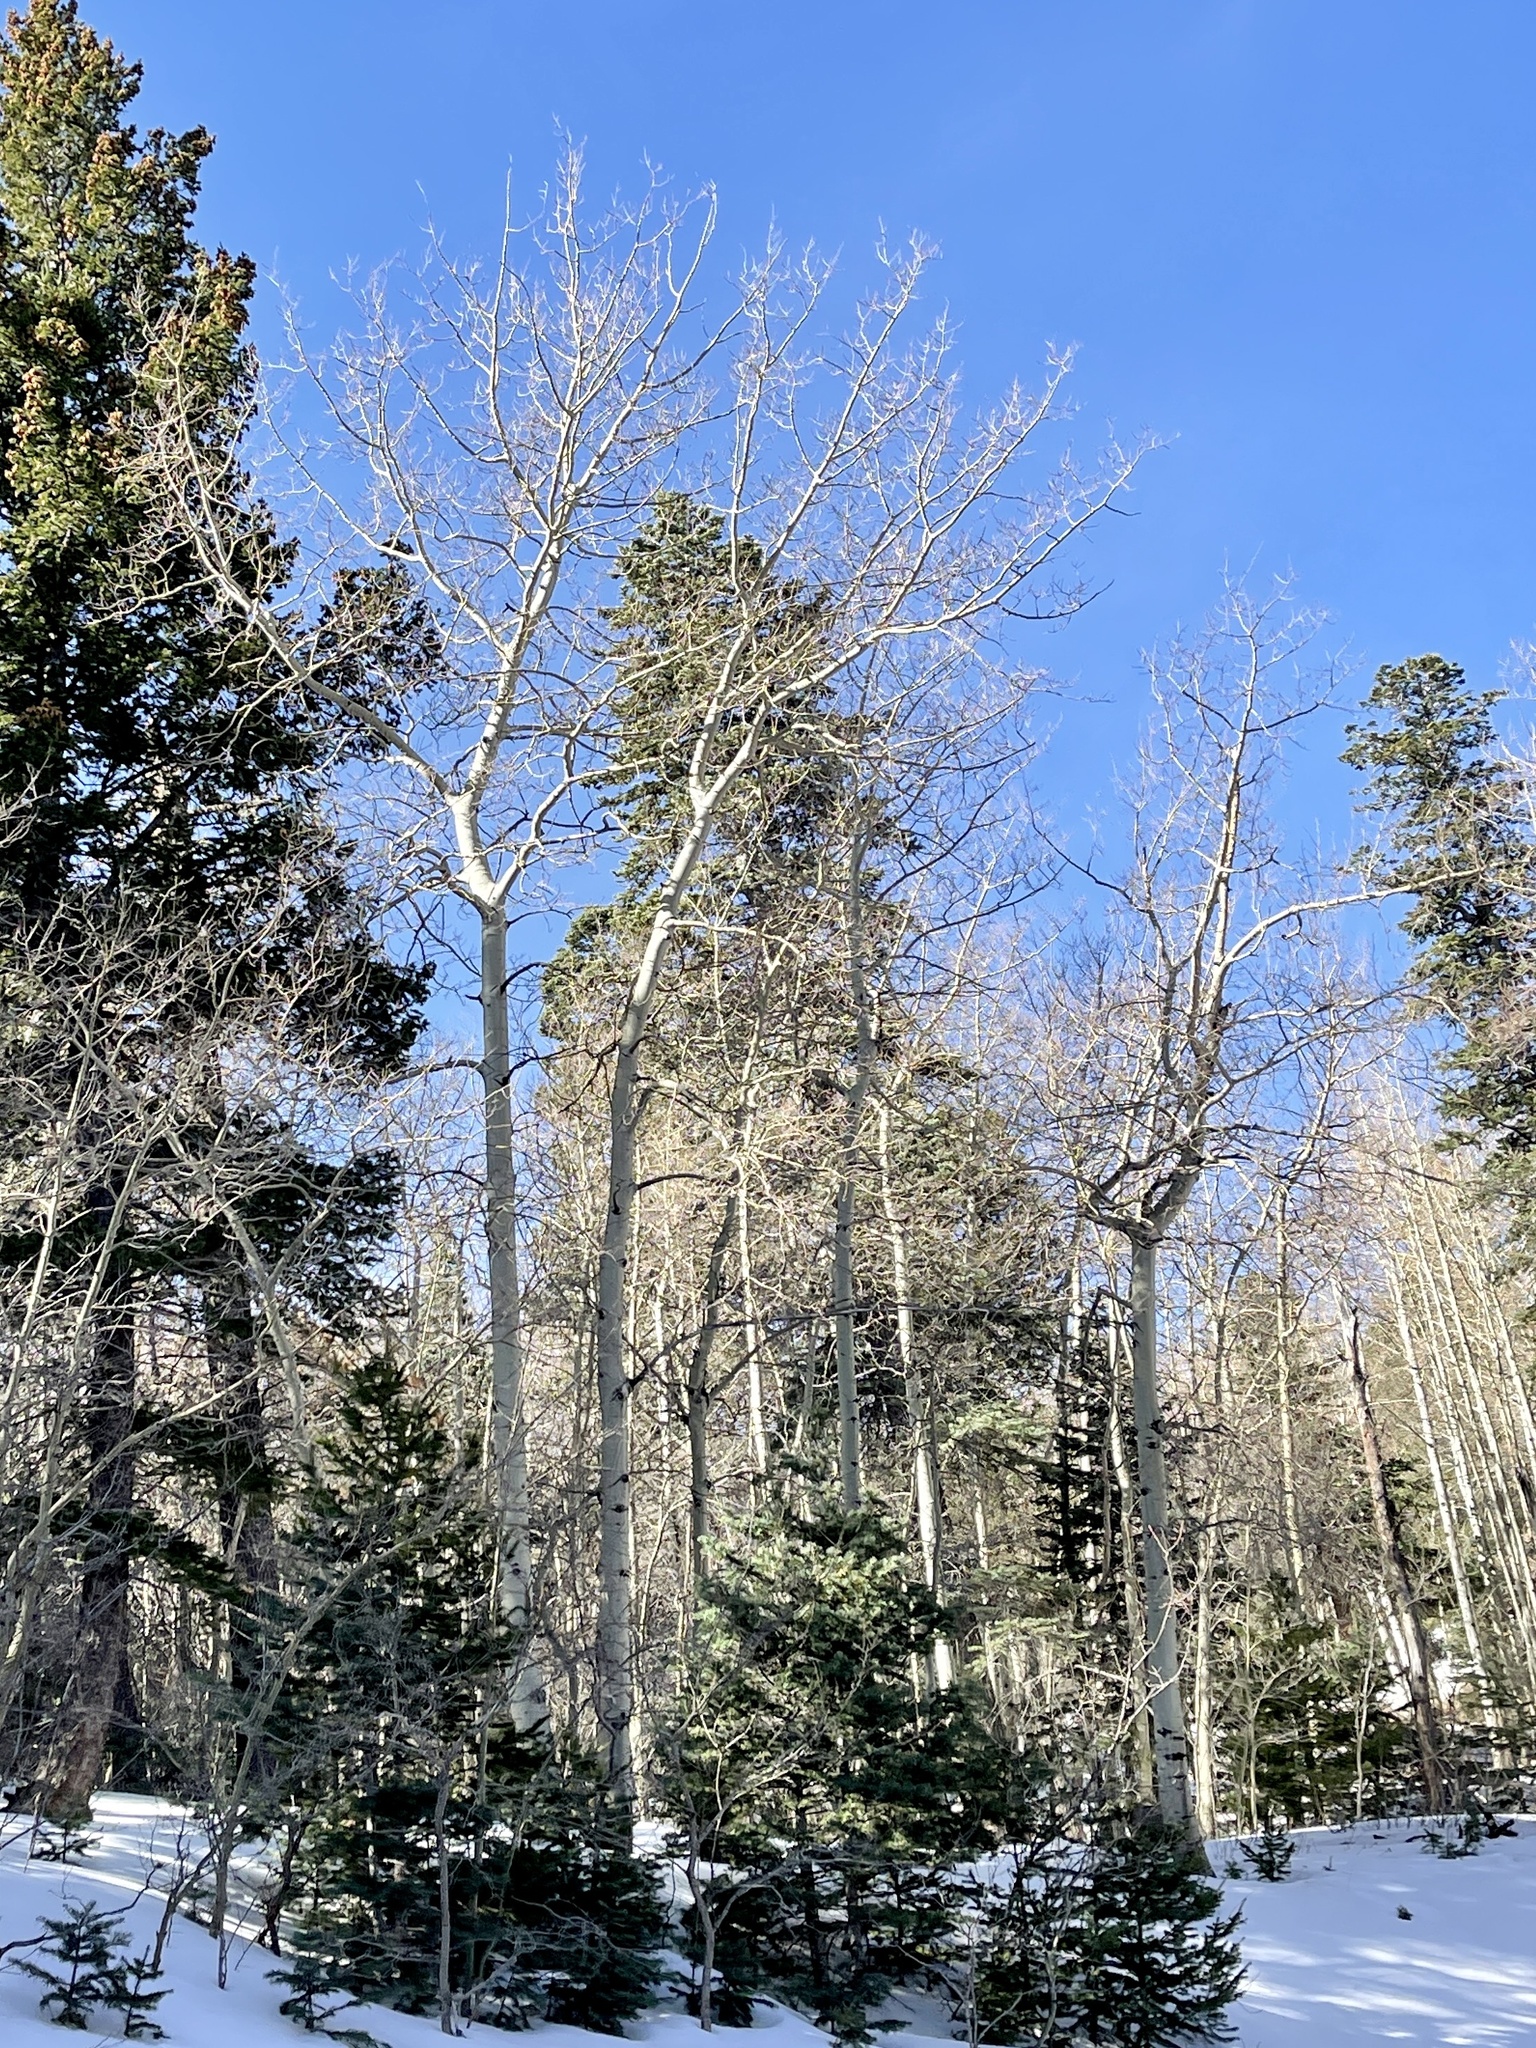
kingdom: Plantae
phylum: Tracheophyta
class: Magnoliopsida
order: Malpighiales
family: Salicaceae
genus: Populus
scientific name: Populus tremuloides
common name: Quaking aspen
